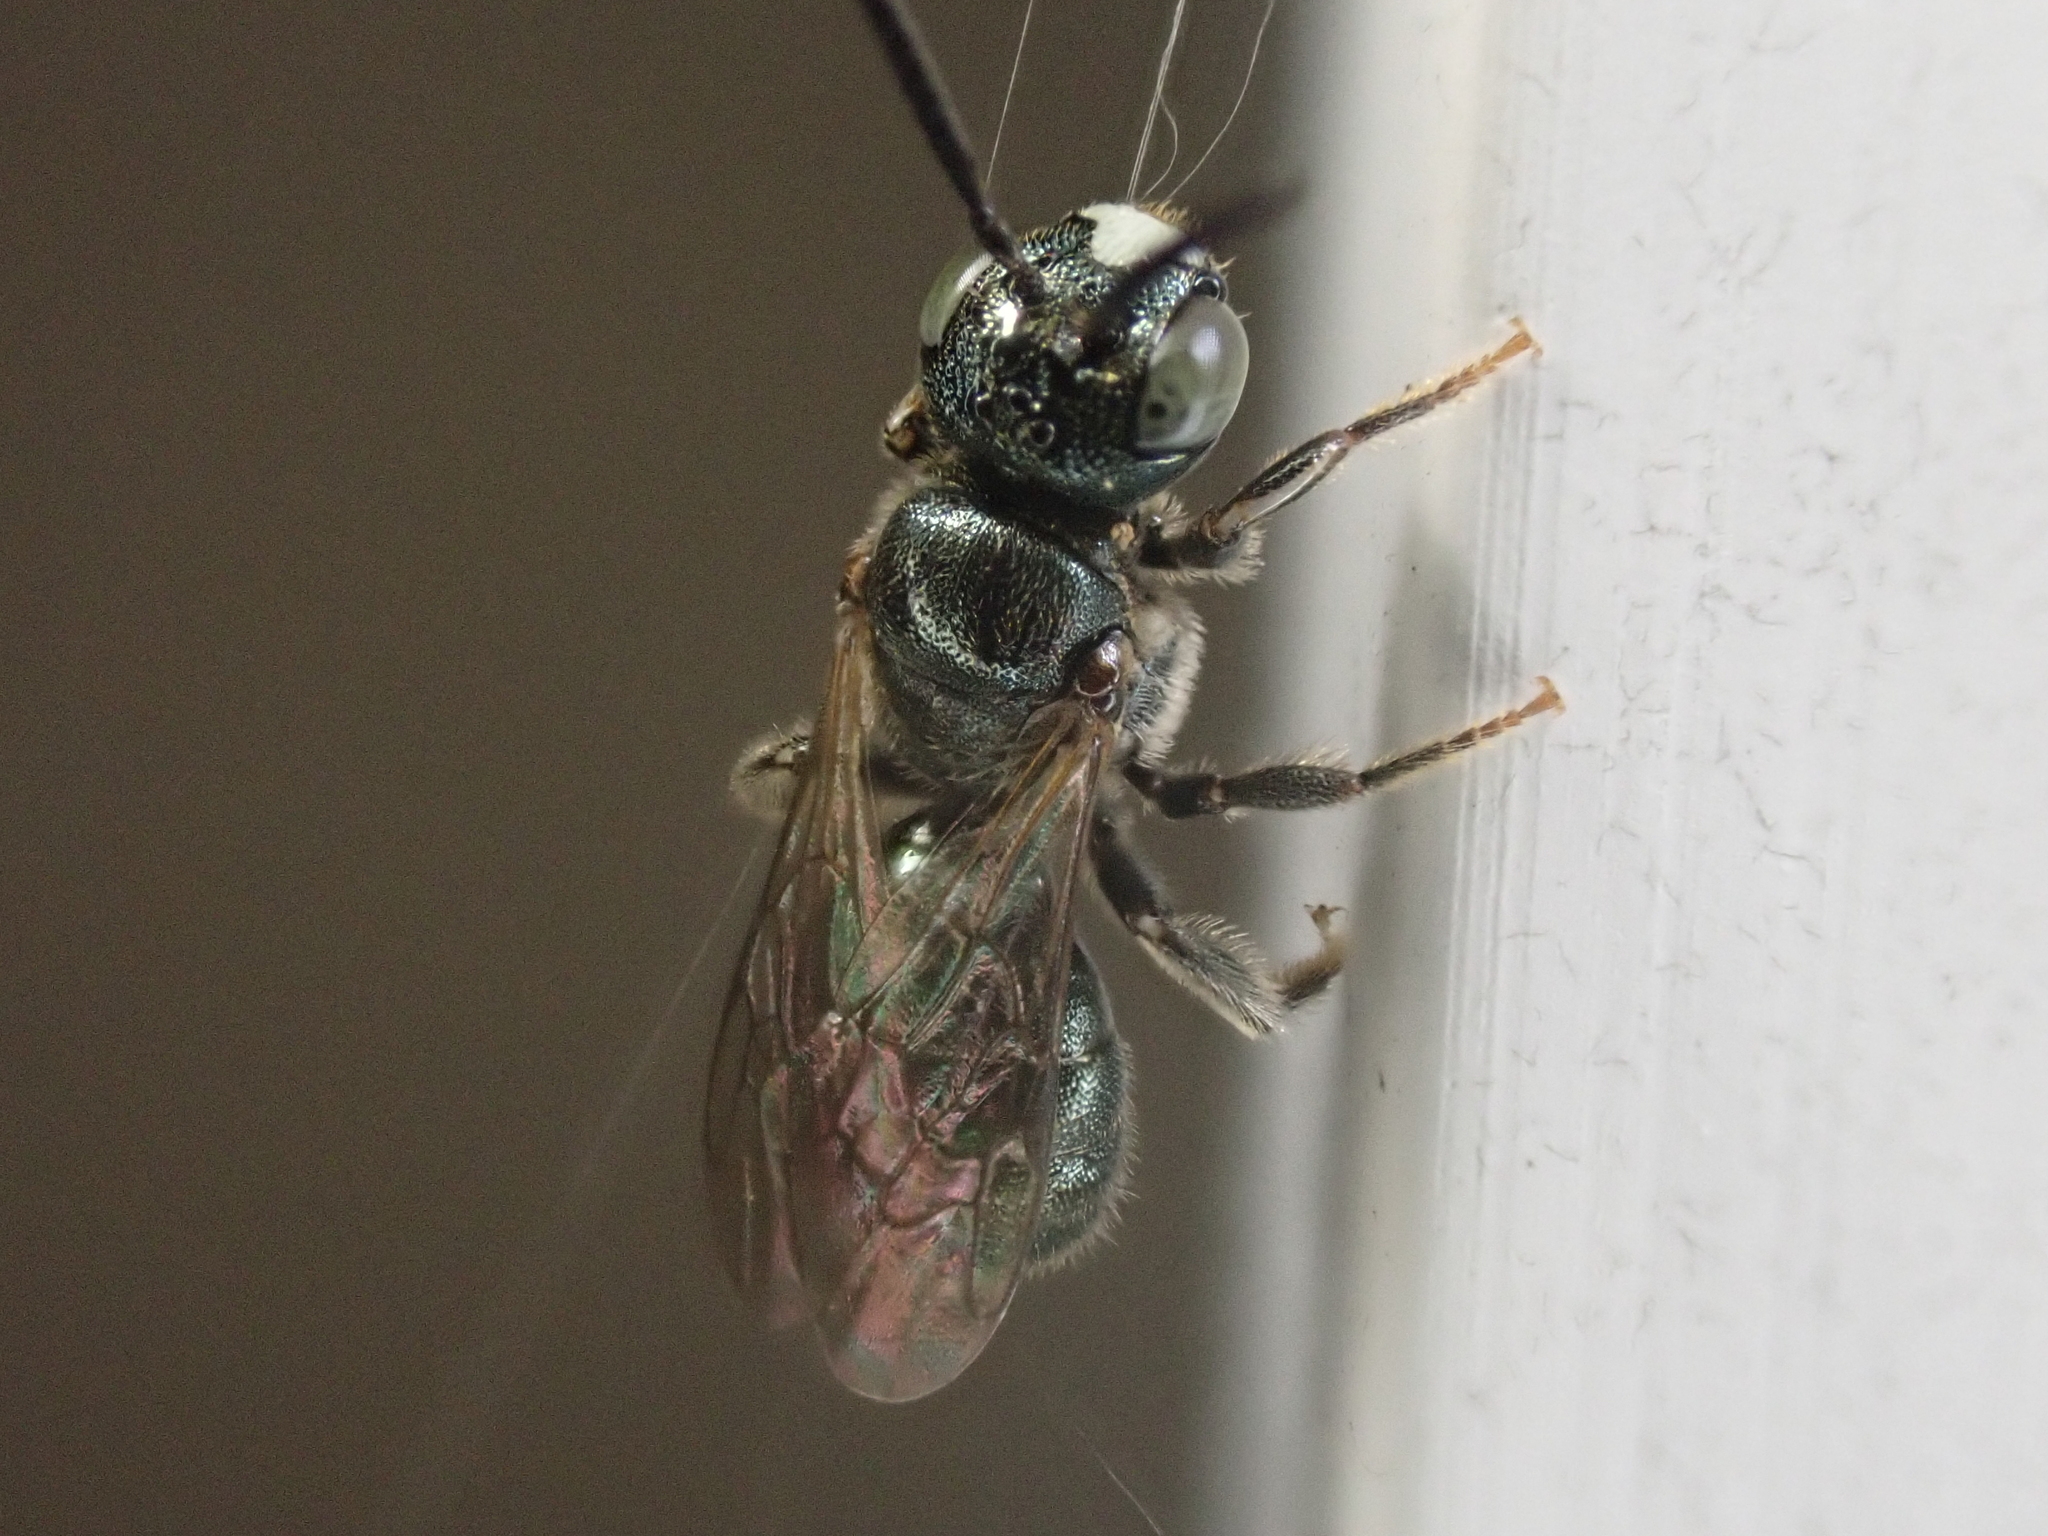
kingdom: Animalia
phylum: Arthropoda
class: Insecta
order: Hymenoptera
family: Apidae
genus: Ceratina
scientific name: Ceratina strenua
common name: Nimble carpenter bee
